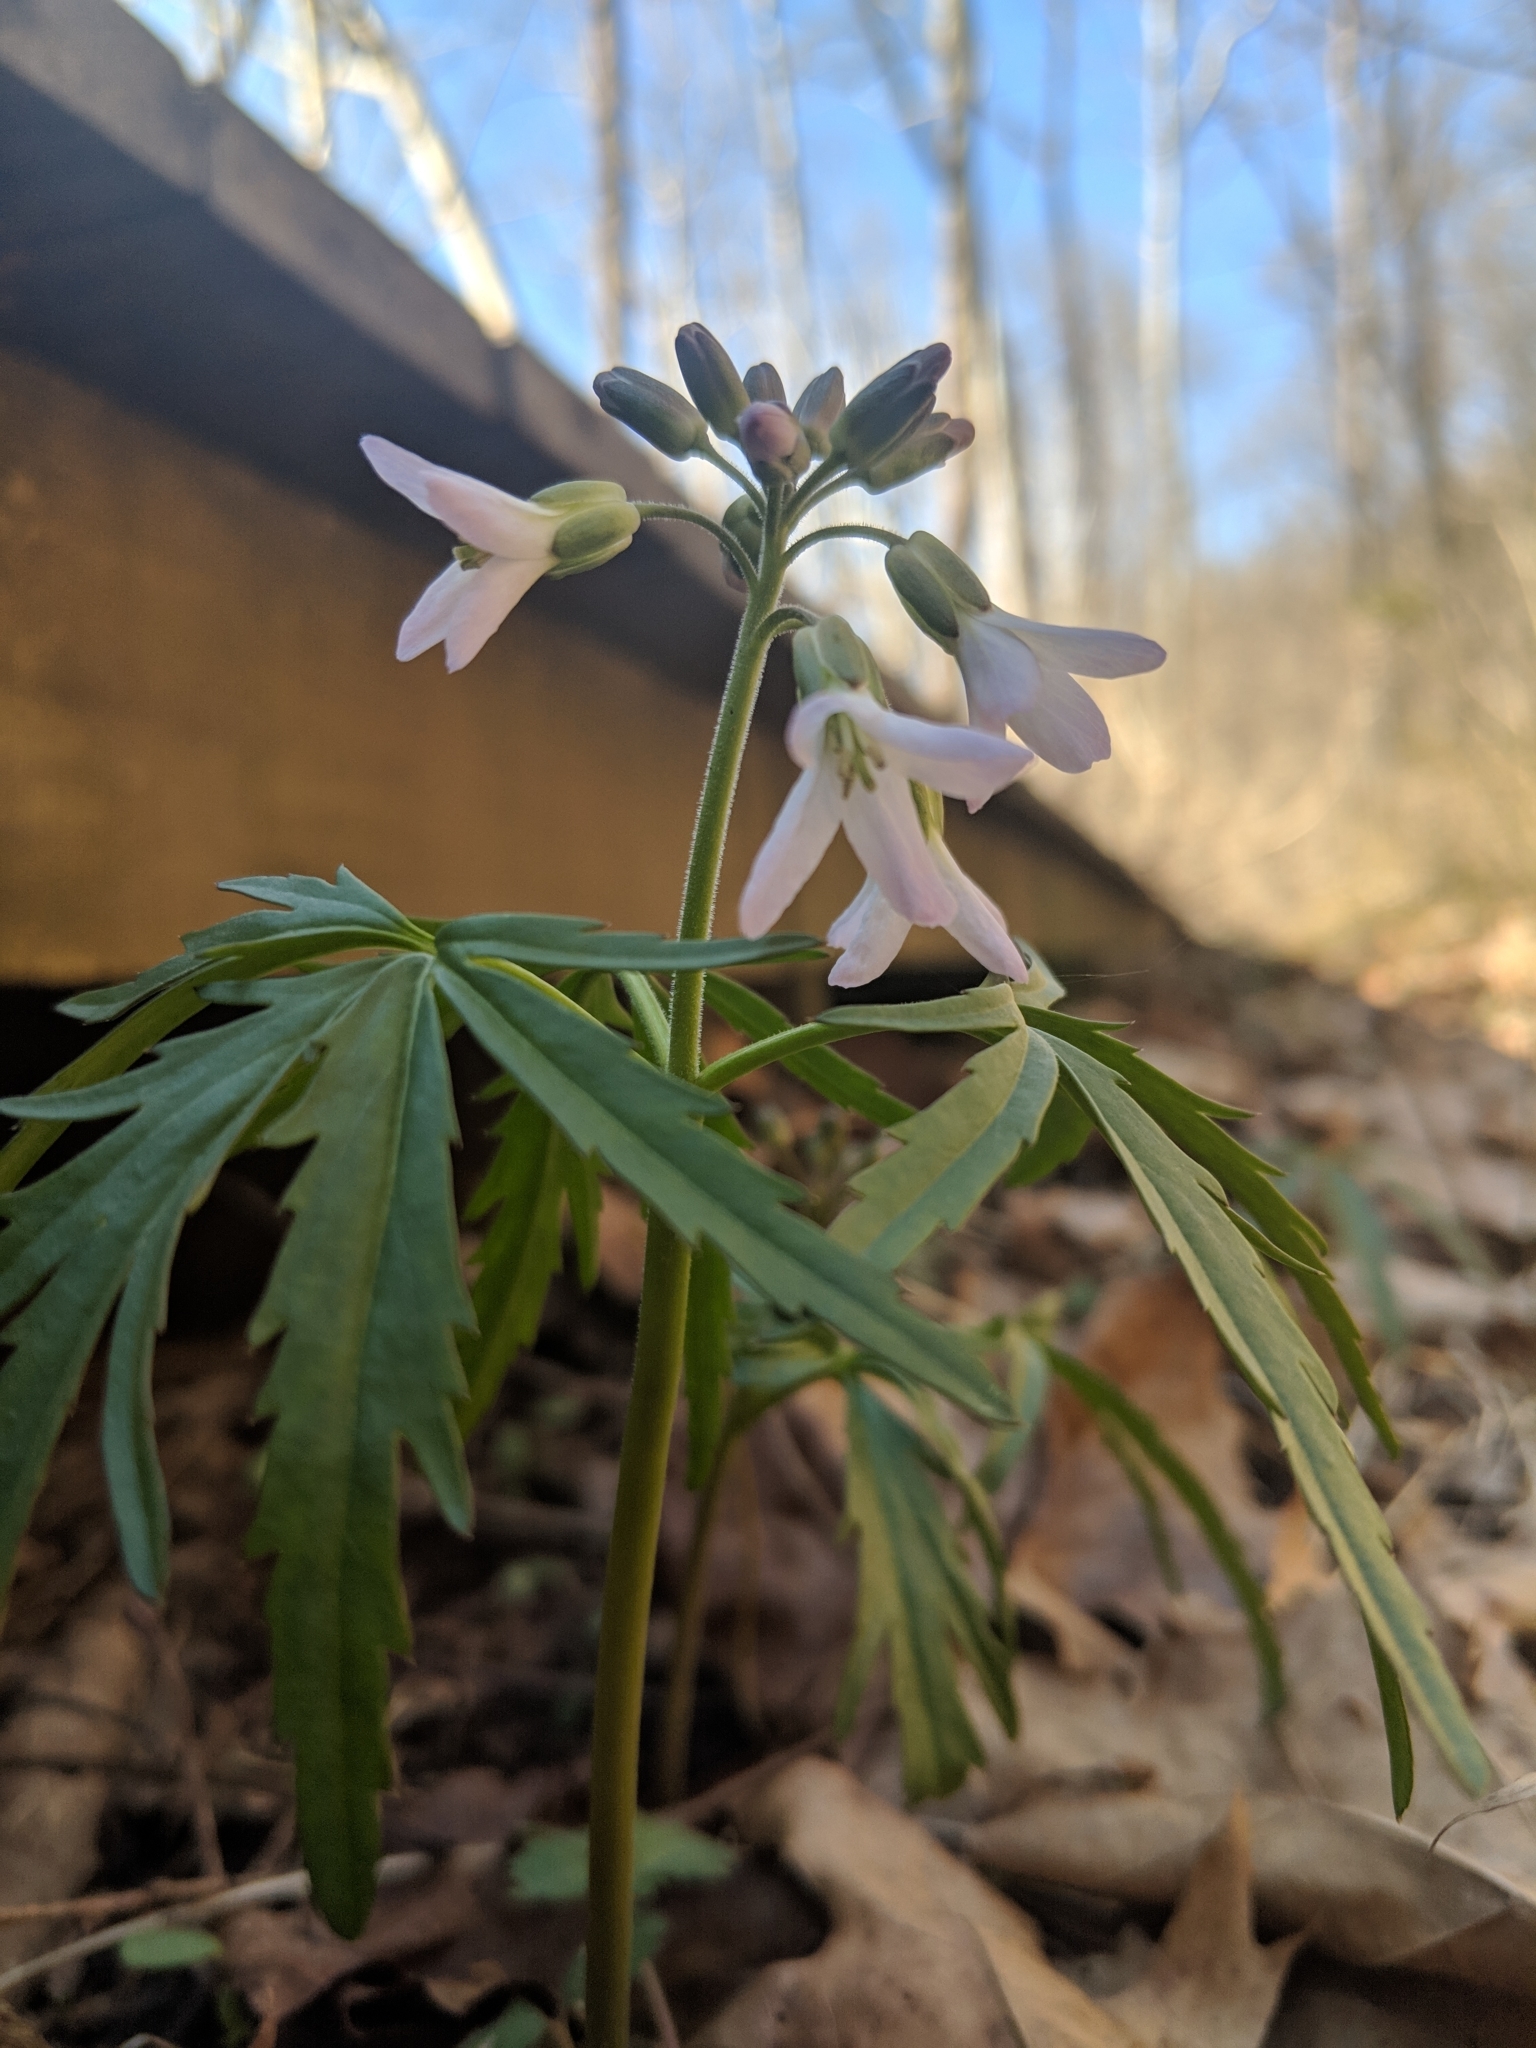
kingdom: Plantae
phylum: Tracheophyta
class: Magnoliopsida
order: Brassicales
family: Brassicaceae
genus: Cardamine
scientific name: Cardamine concatenata
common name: Cut-leaf toothcup
